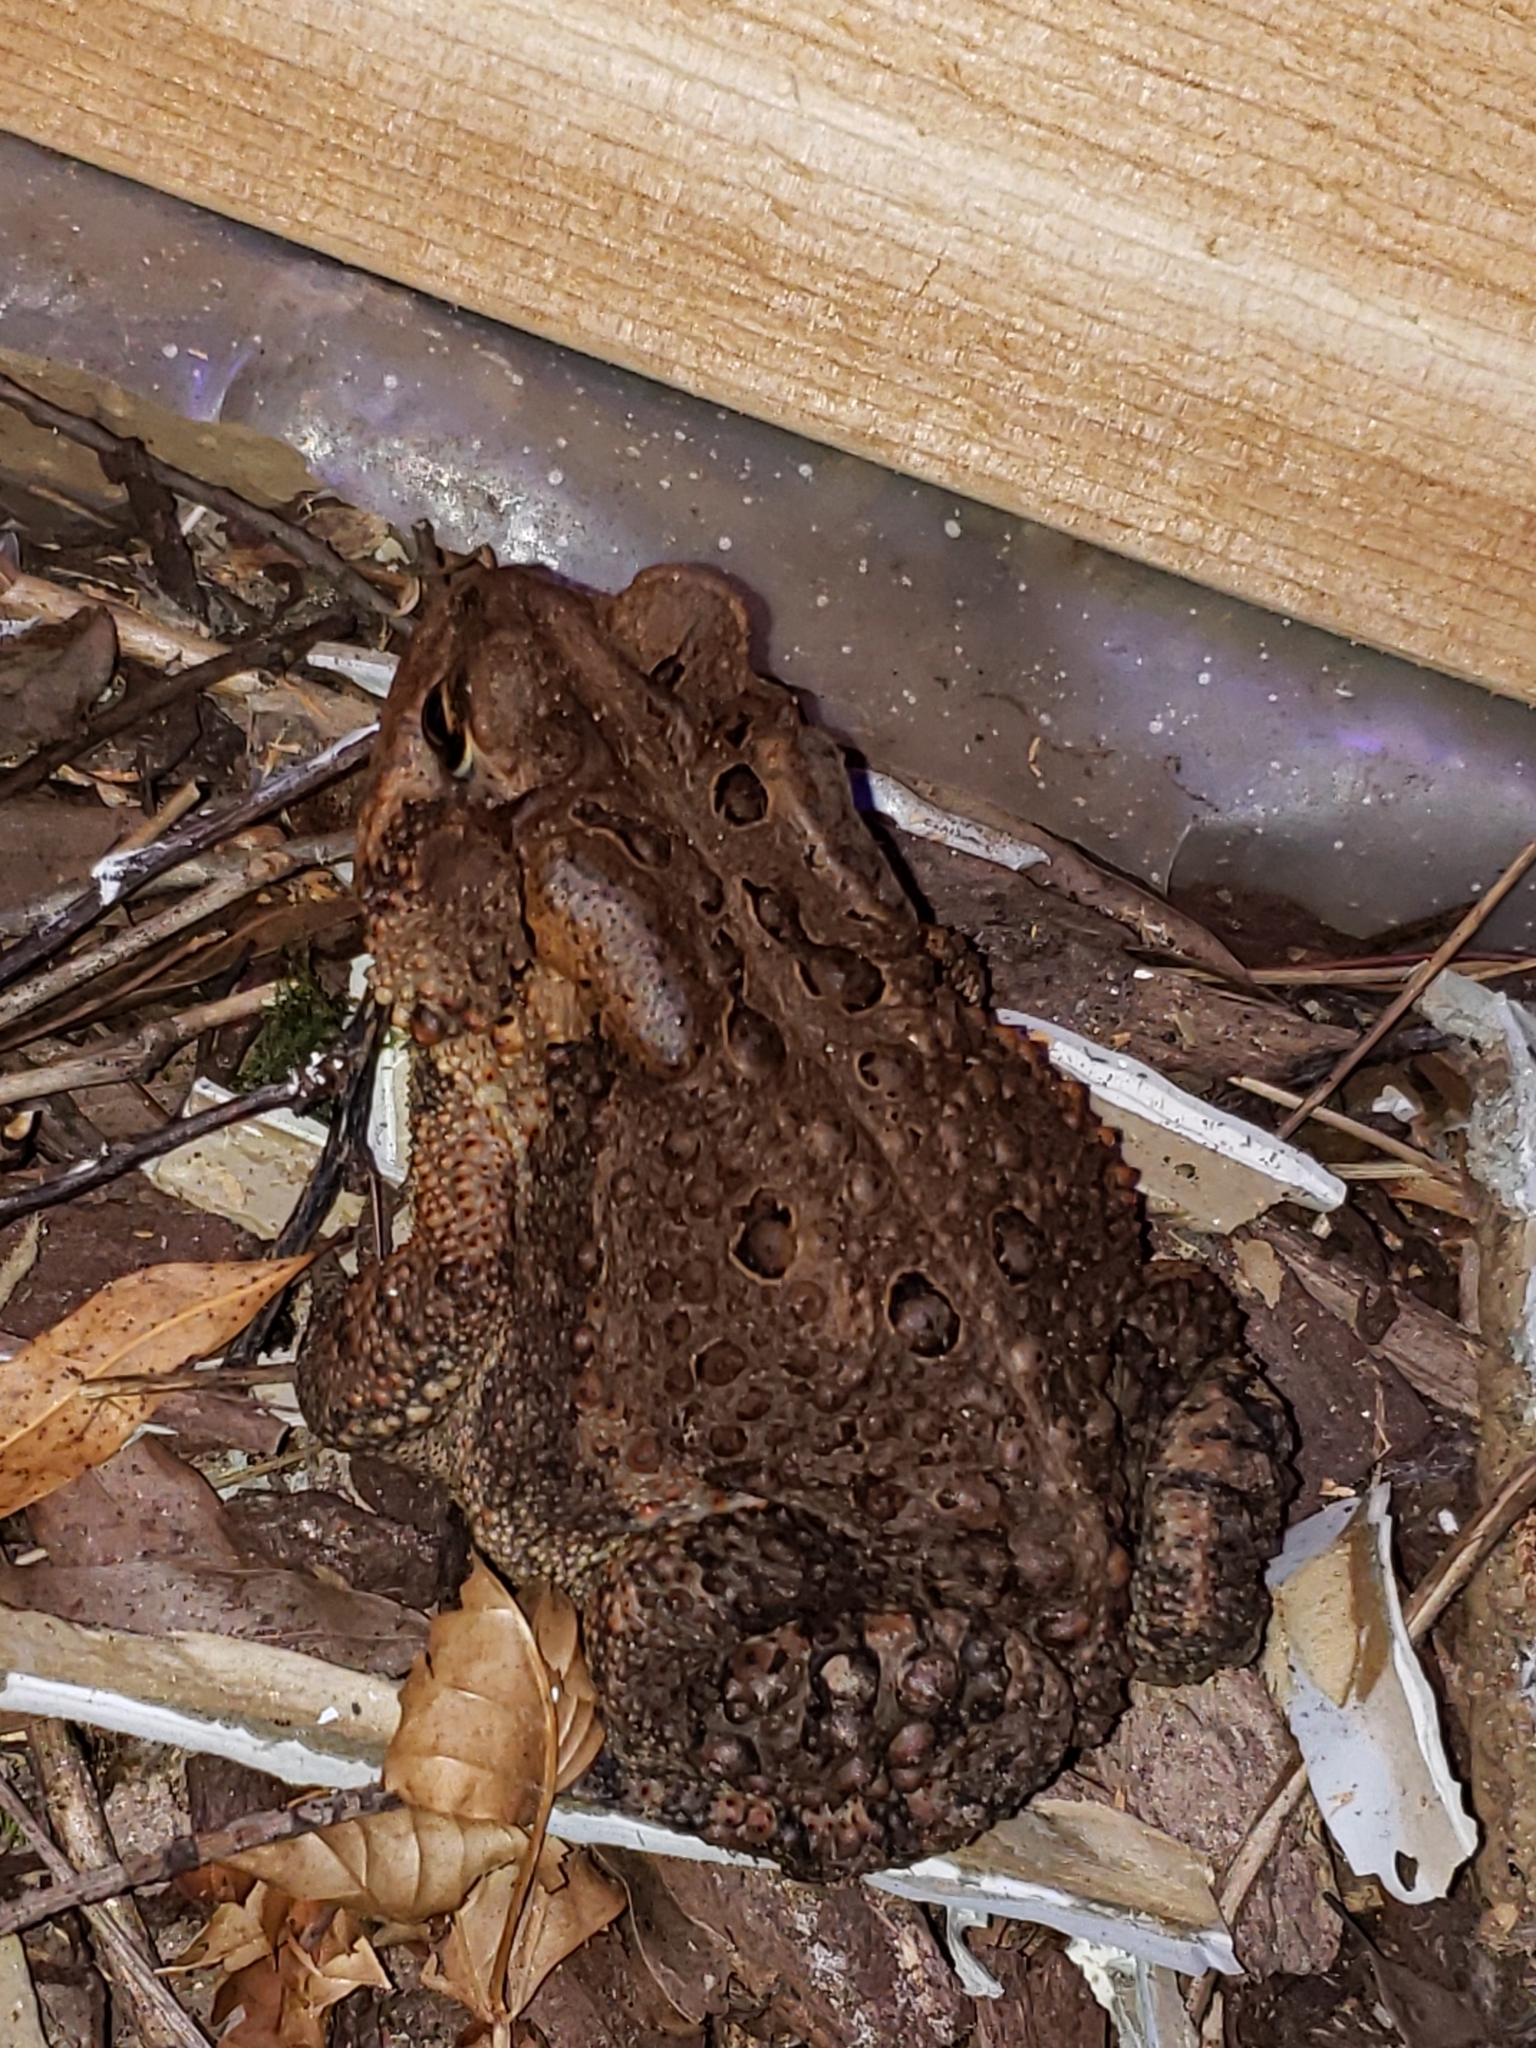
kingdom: Animalia
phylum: Chordata
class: Amphibia
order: Anura
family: Bufonidae
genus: Anaxyrus
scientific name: Anaxyrus americanus
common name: American toad
